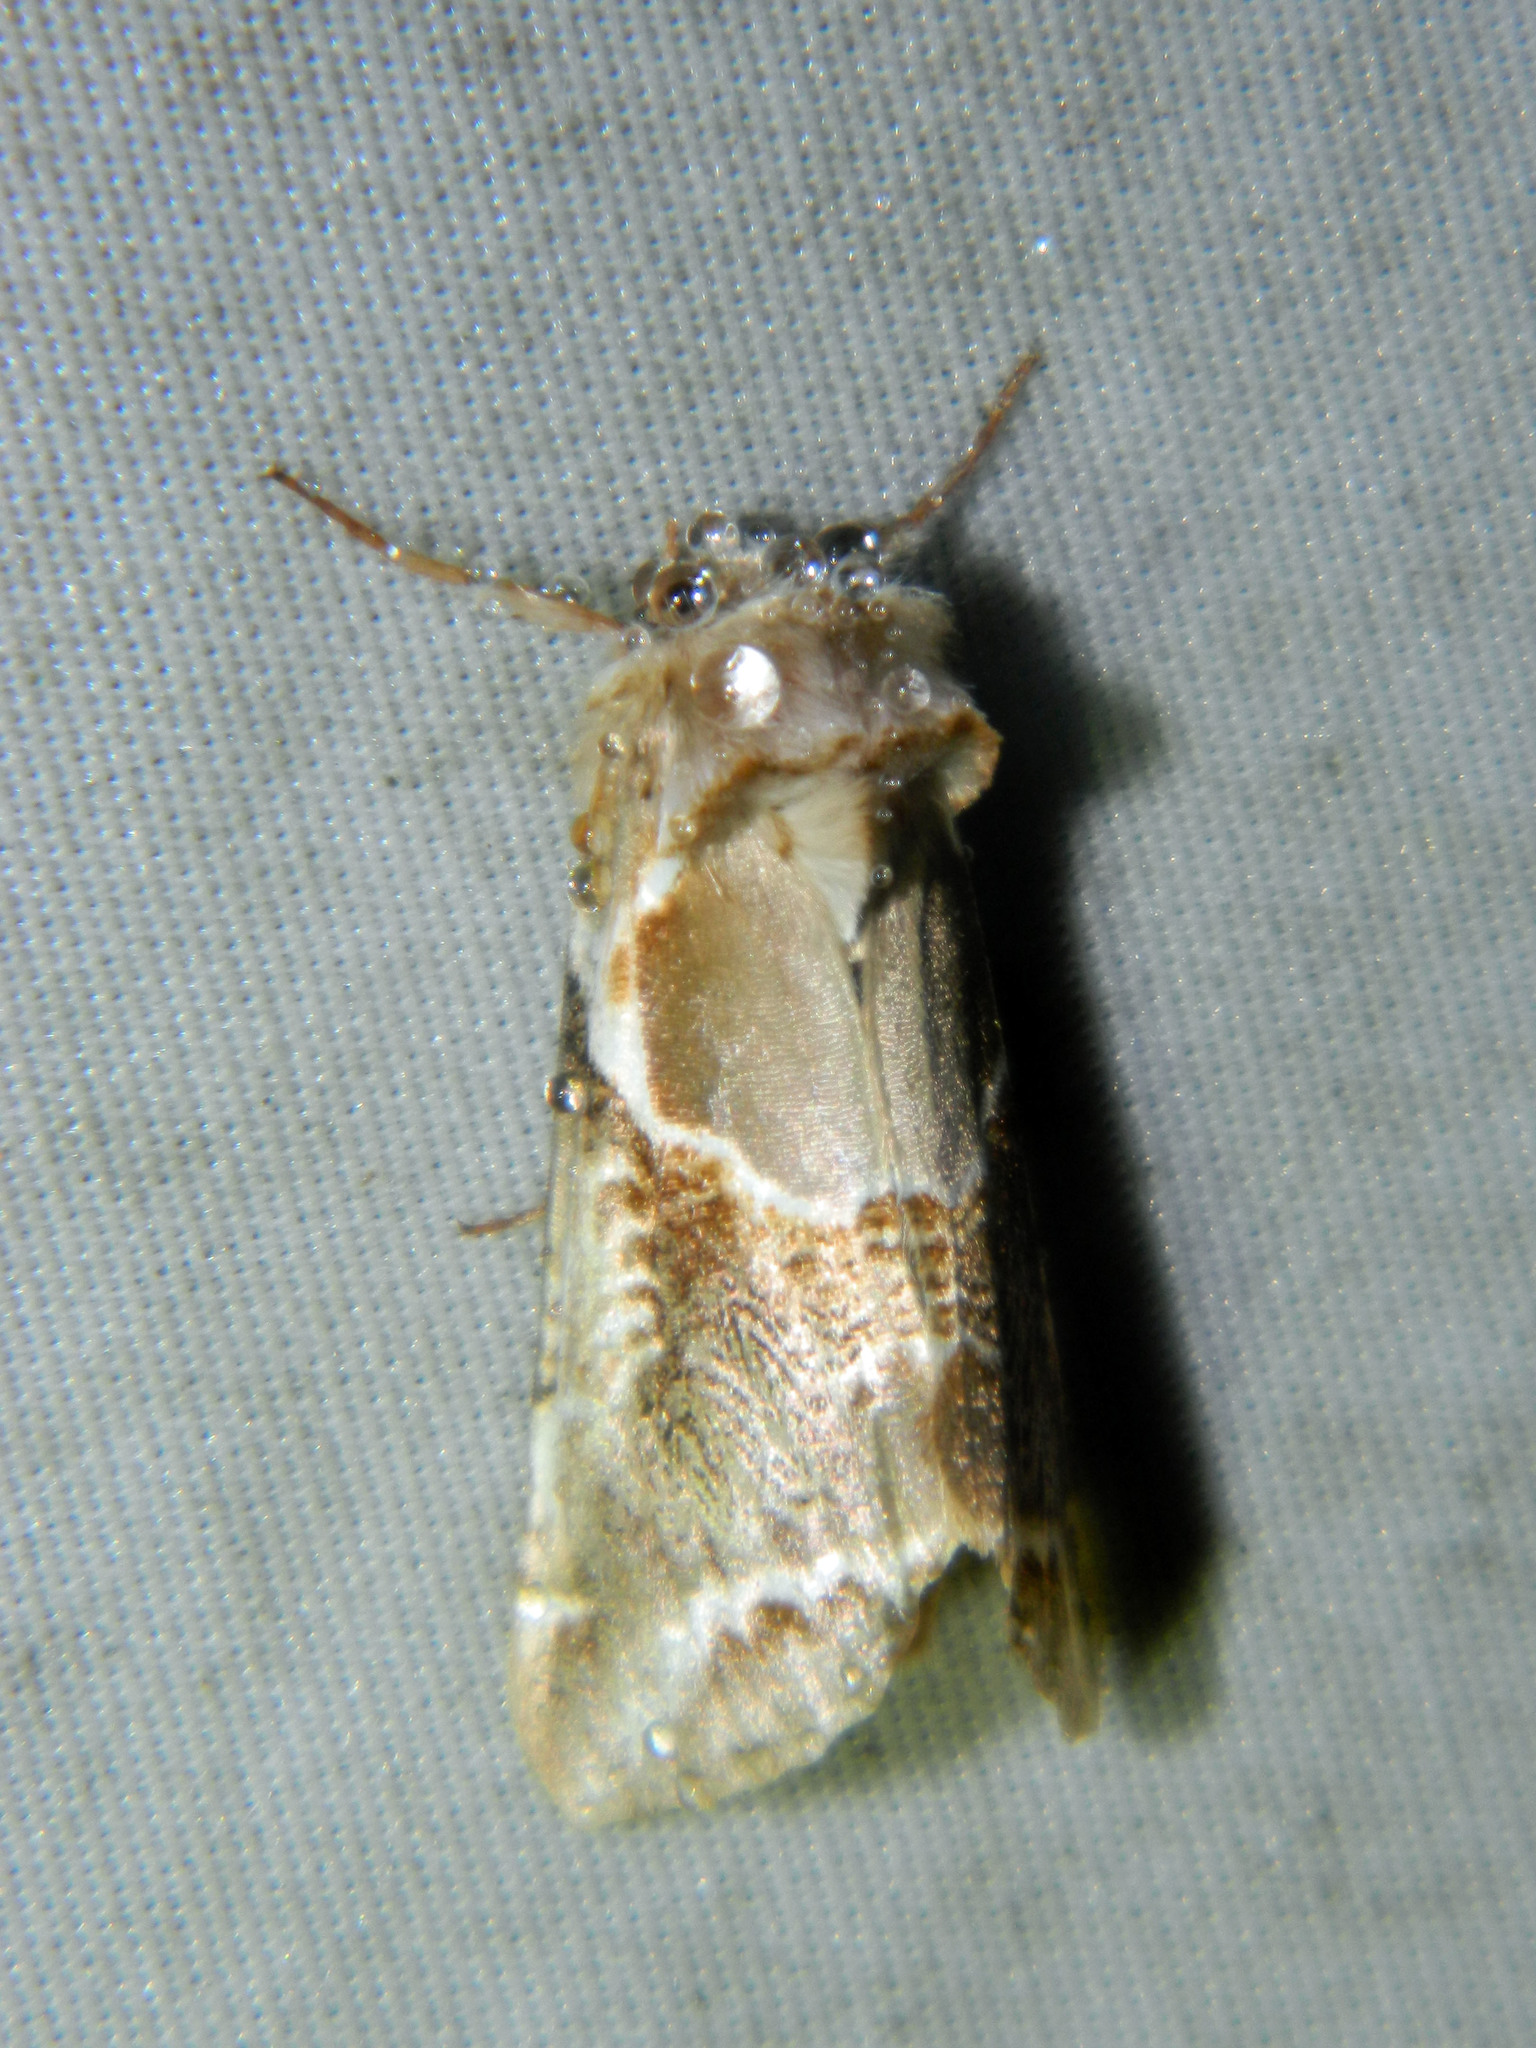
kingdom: Animalia
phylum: Arthropoda
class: Insecta
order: Lepidoptera
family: Drepanidae
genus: Habrosyne
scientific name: Habrosyne scripta
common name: Lettered habrosyne moth
